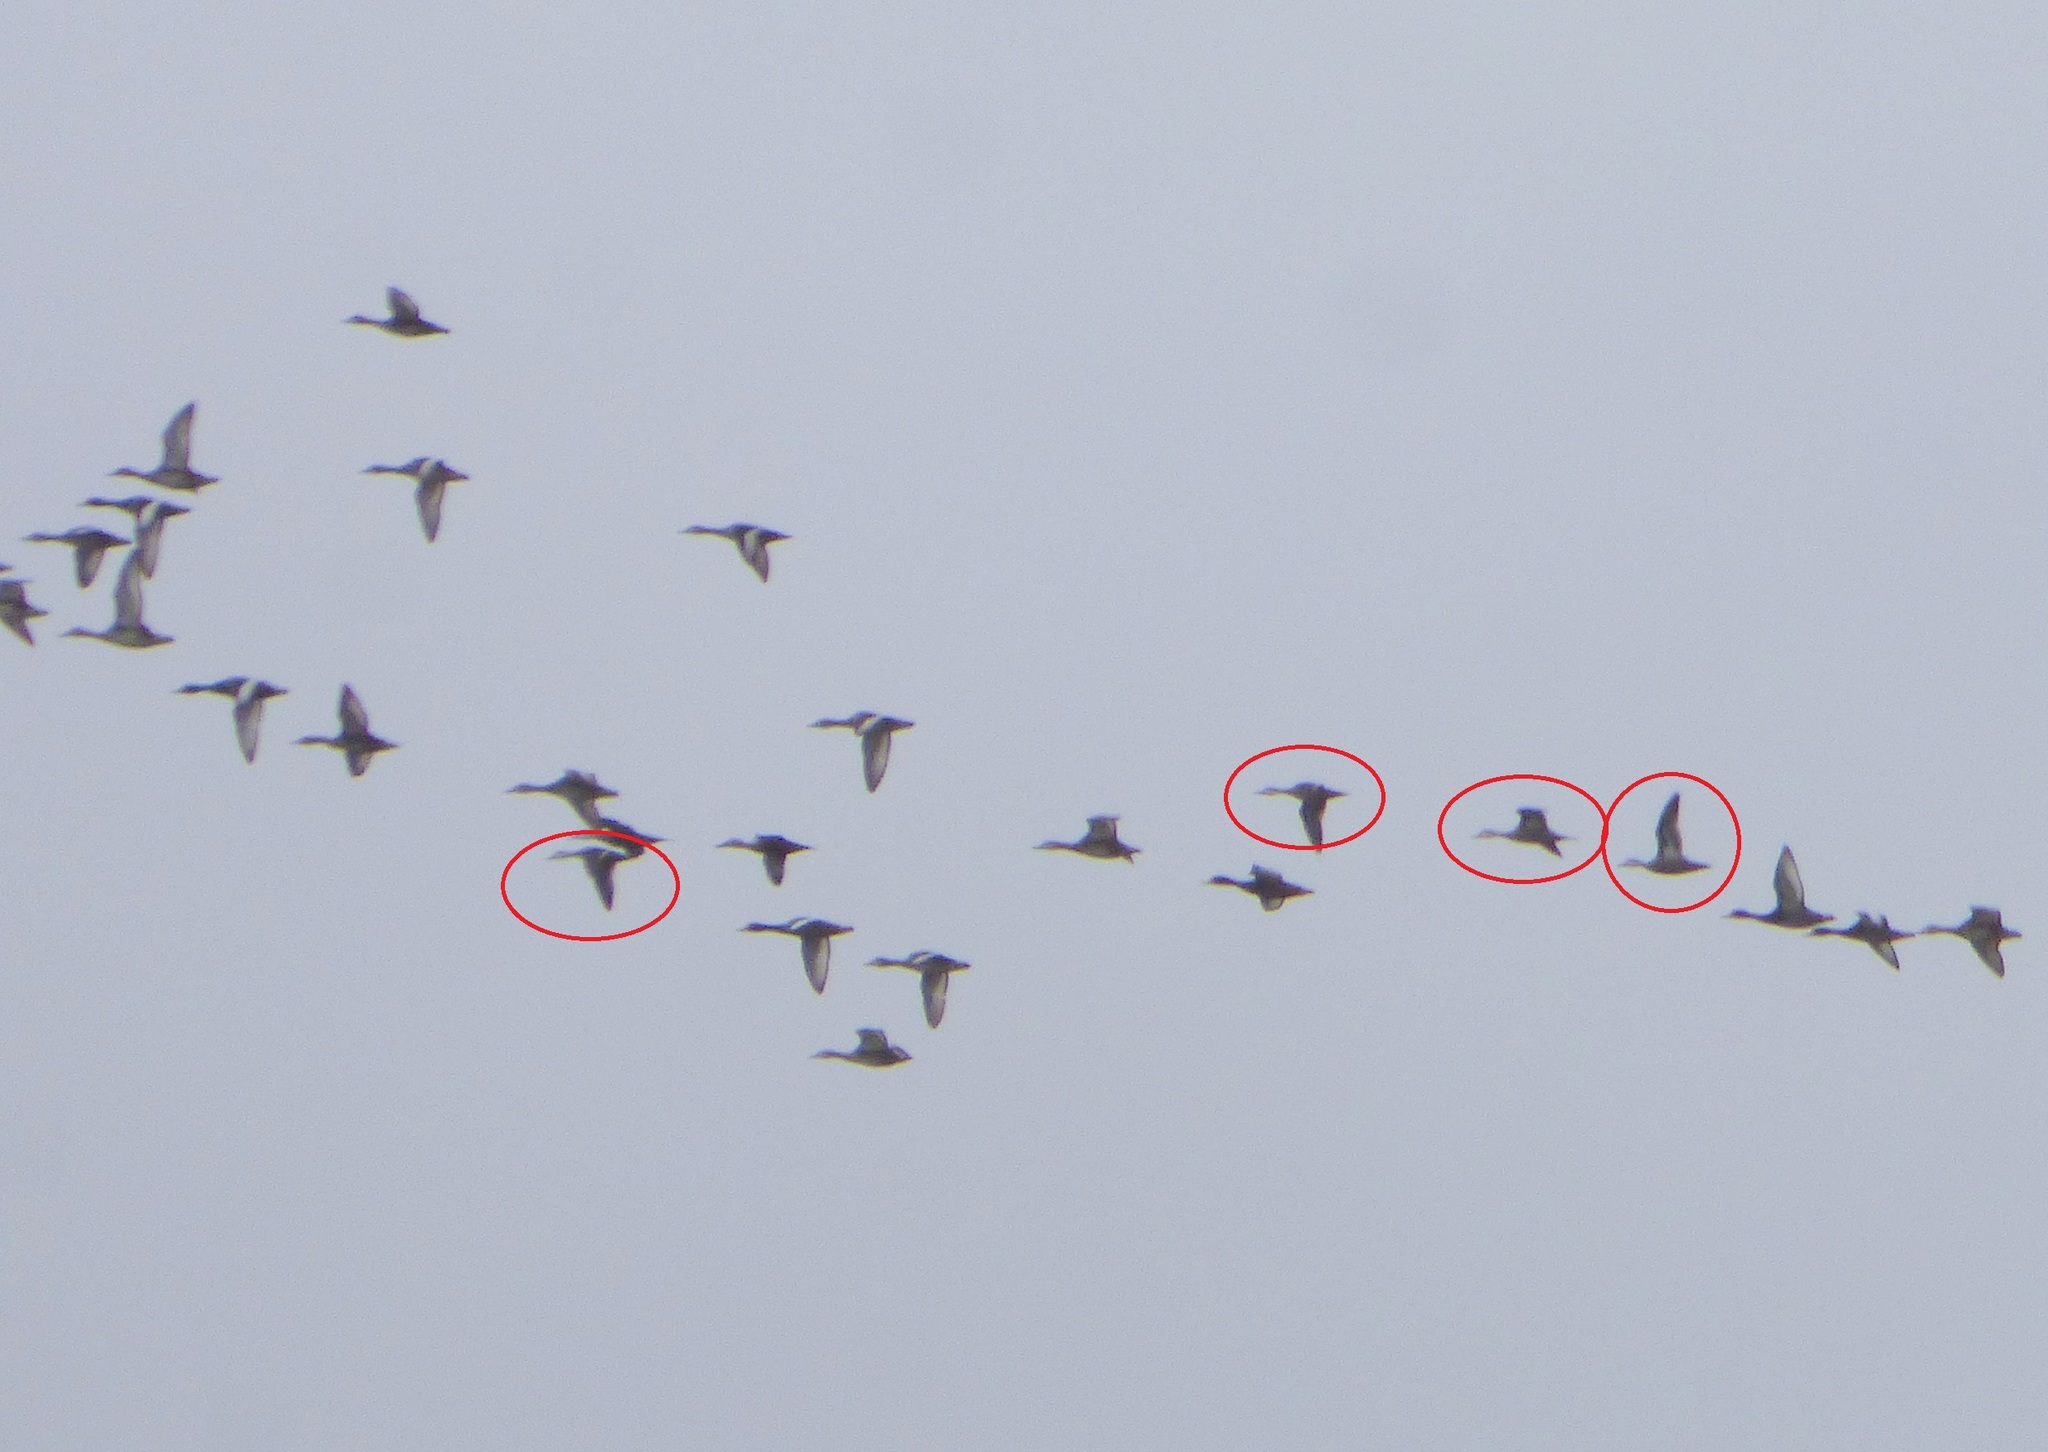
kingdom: Animalia
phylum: Chordata
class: Aves
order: Anseriformes
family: Anatidae
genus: Anas
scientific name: Anas bahamensis
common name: White-cheeked pintail
